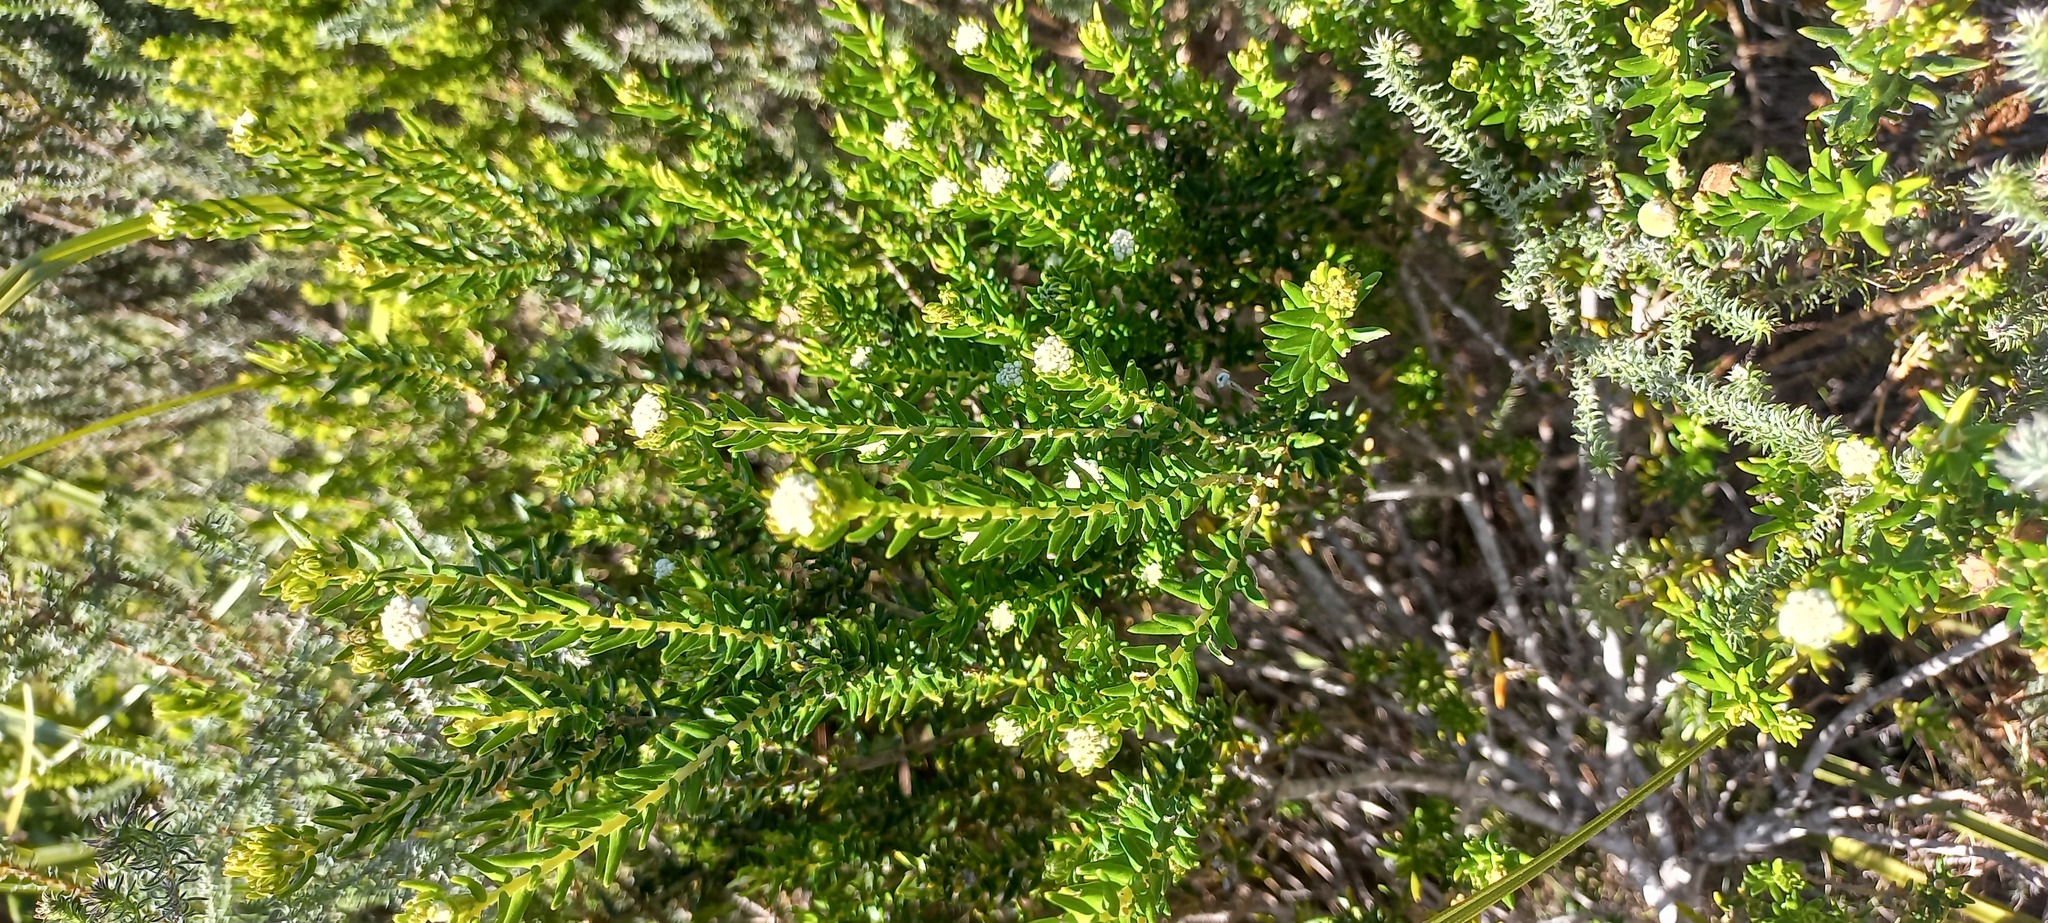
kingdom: Plantae
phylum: Tracheophyta
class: Magnoliopsida
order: Rosales
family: Rhamnaceae
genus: Phylica
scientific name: Phylica lasiocarpa
